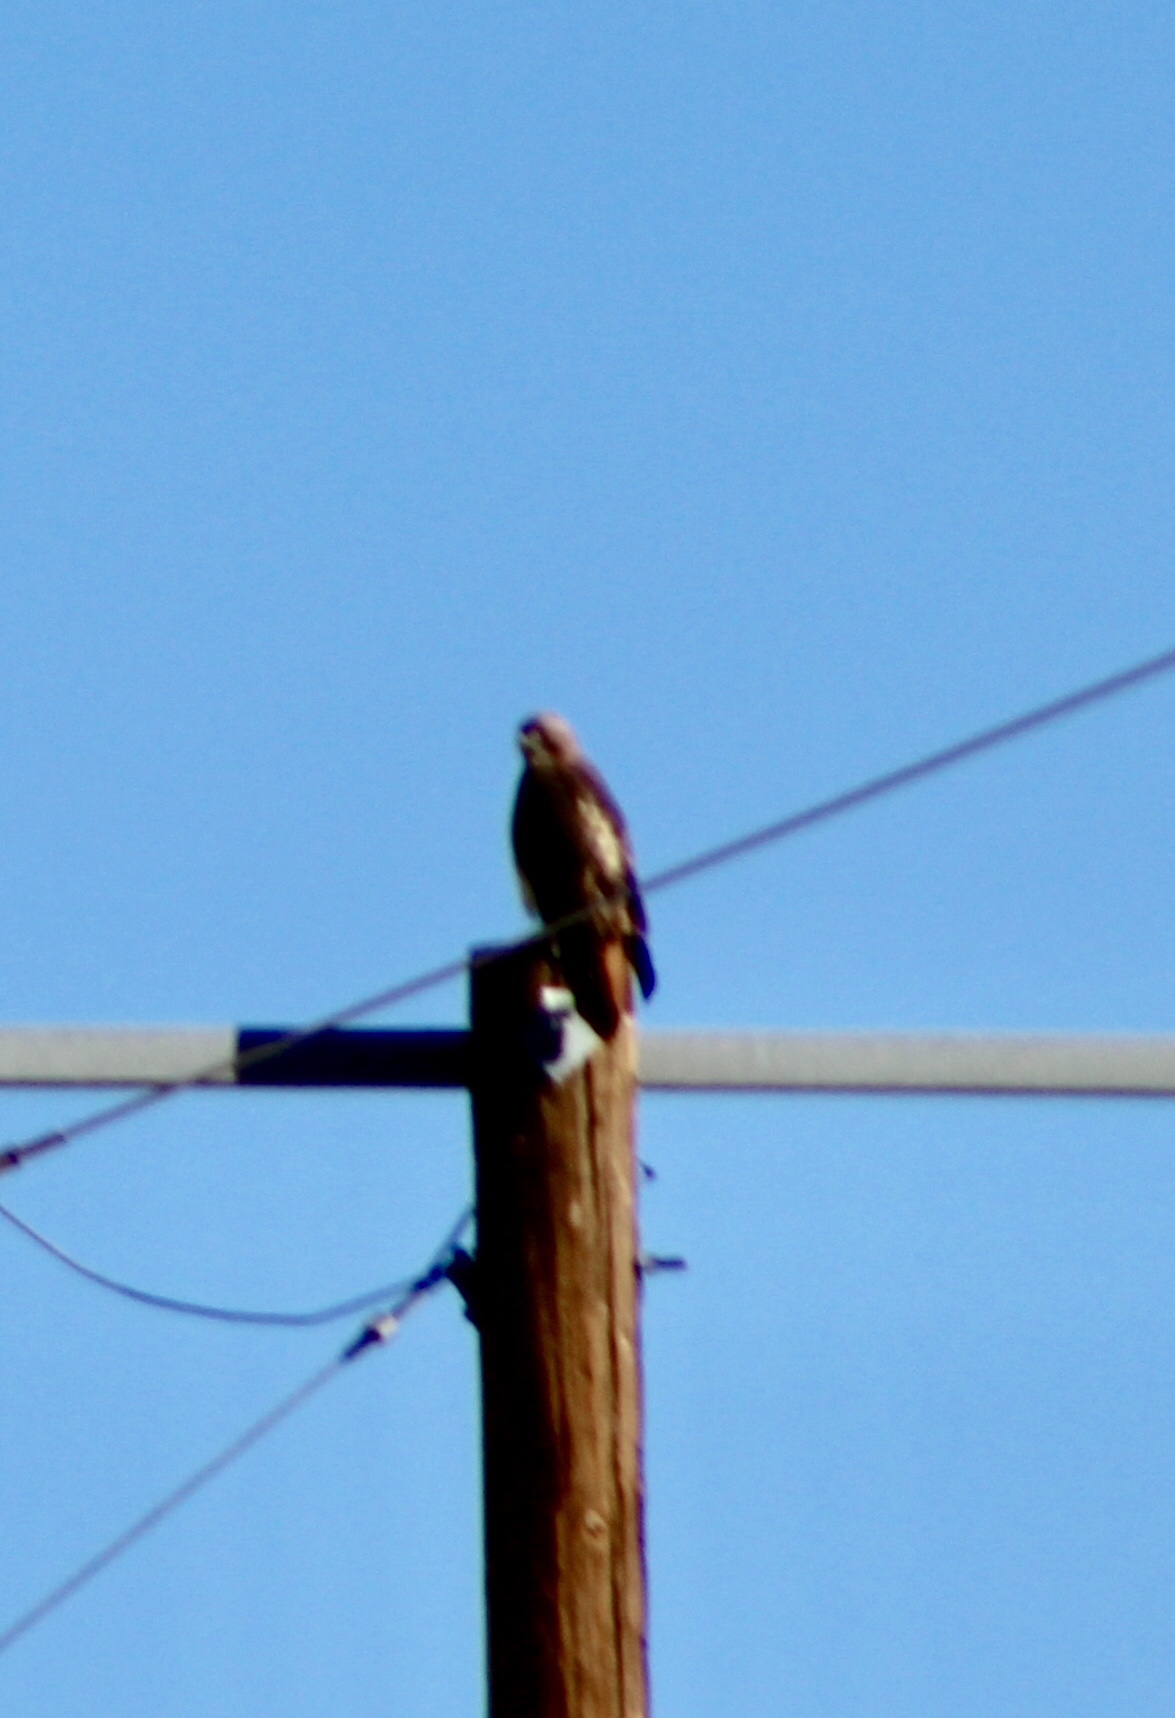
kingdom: Animalia
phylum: Chordata
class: Aves
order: Accipitriformes
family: Accipitridae
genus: Buteo
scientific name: Buteo jamaicensis
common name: Red-tailed hawk
